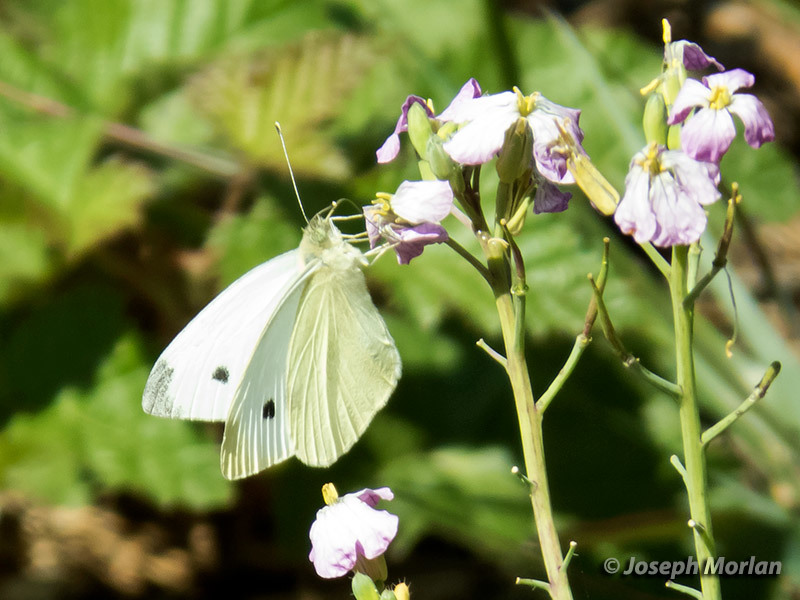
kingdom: Animalia
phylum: Arthropoda
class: Insecta
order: Lepidoptera
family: Pieridae
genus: Pieris
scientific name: Pieris rapae
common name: Small white
